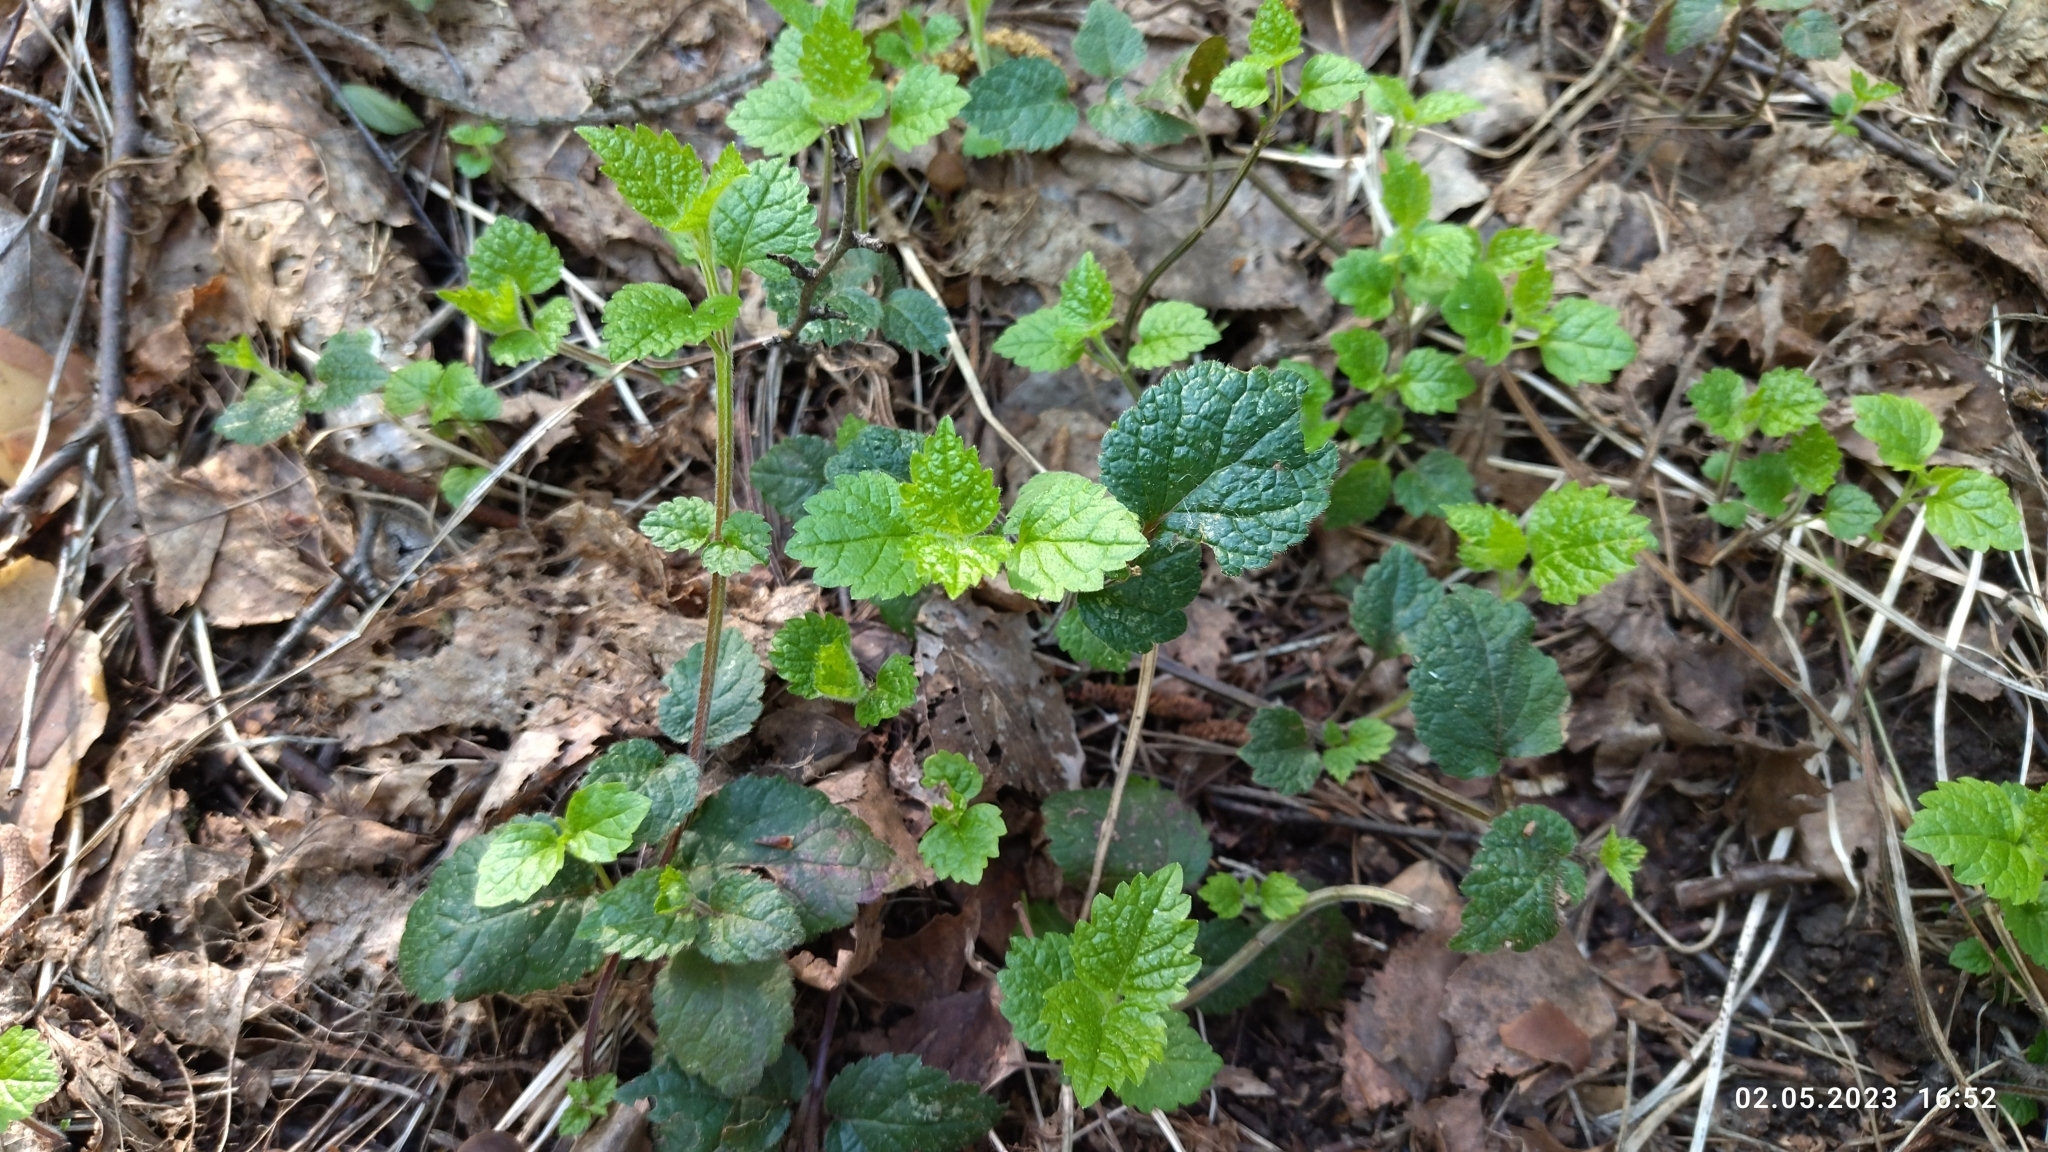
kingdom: Plantae
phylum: Tracheophyta
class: Magnoliopsida
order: Lamiales
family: Lamiaceae
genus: Lamium
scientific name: Lamium galeobdolon
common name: Yellow archangel
